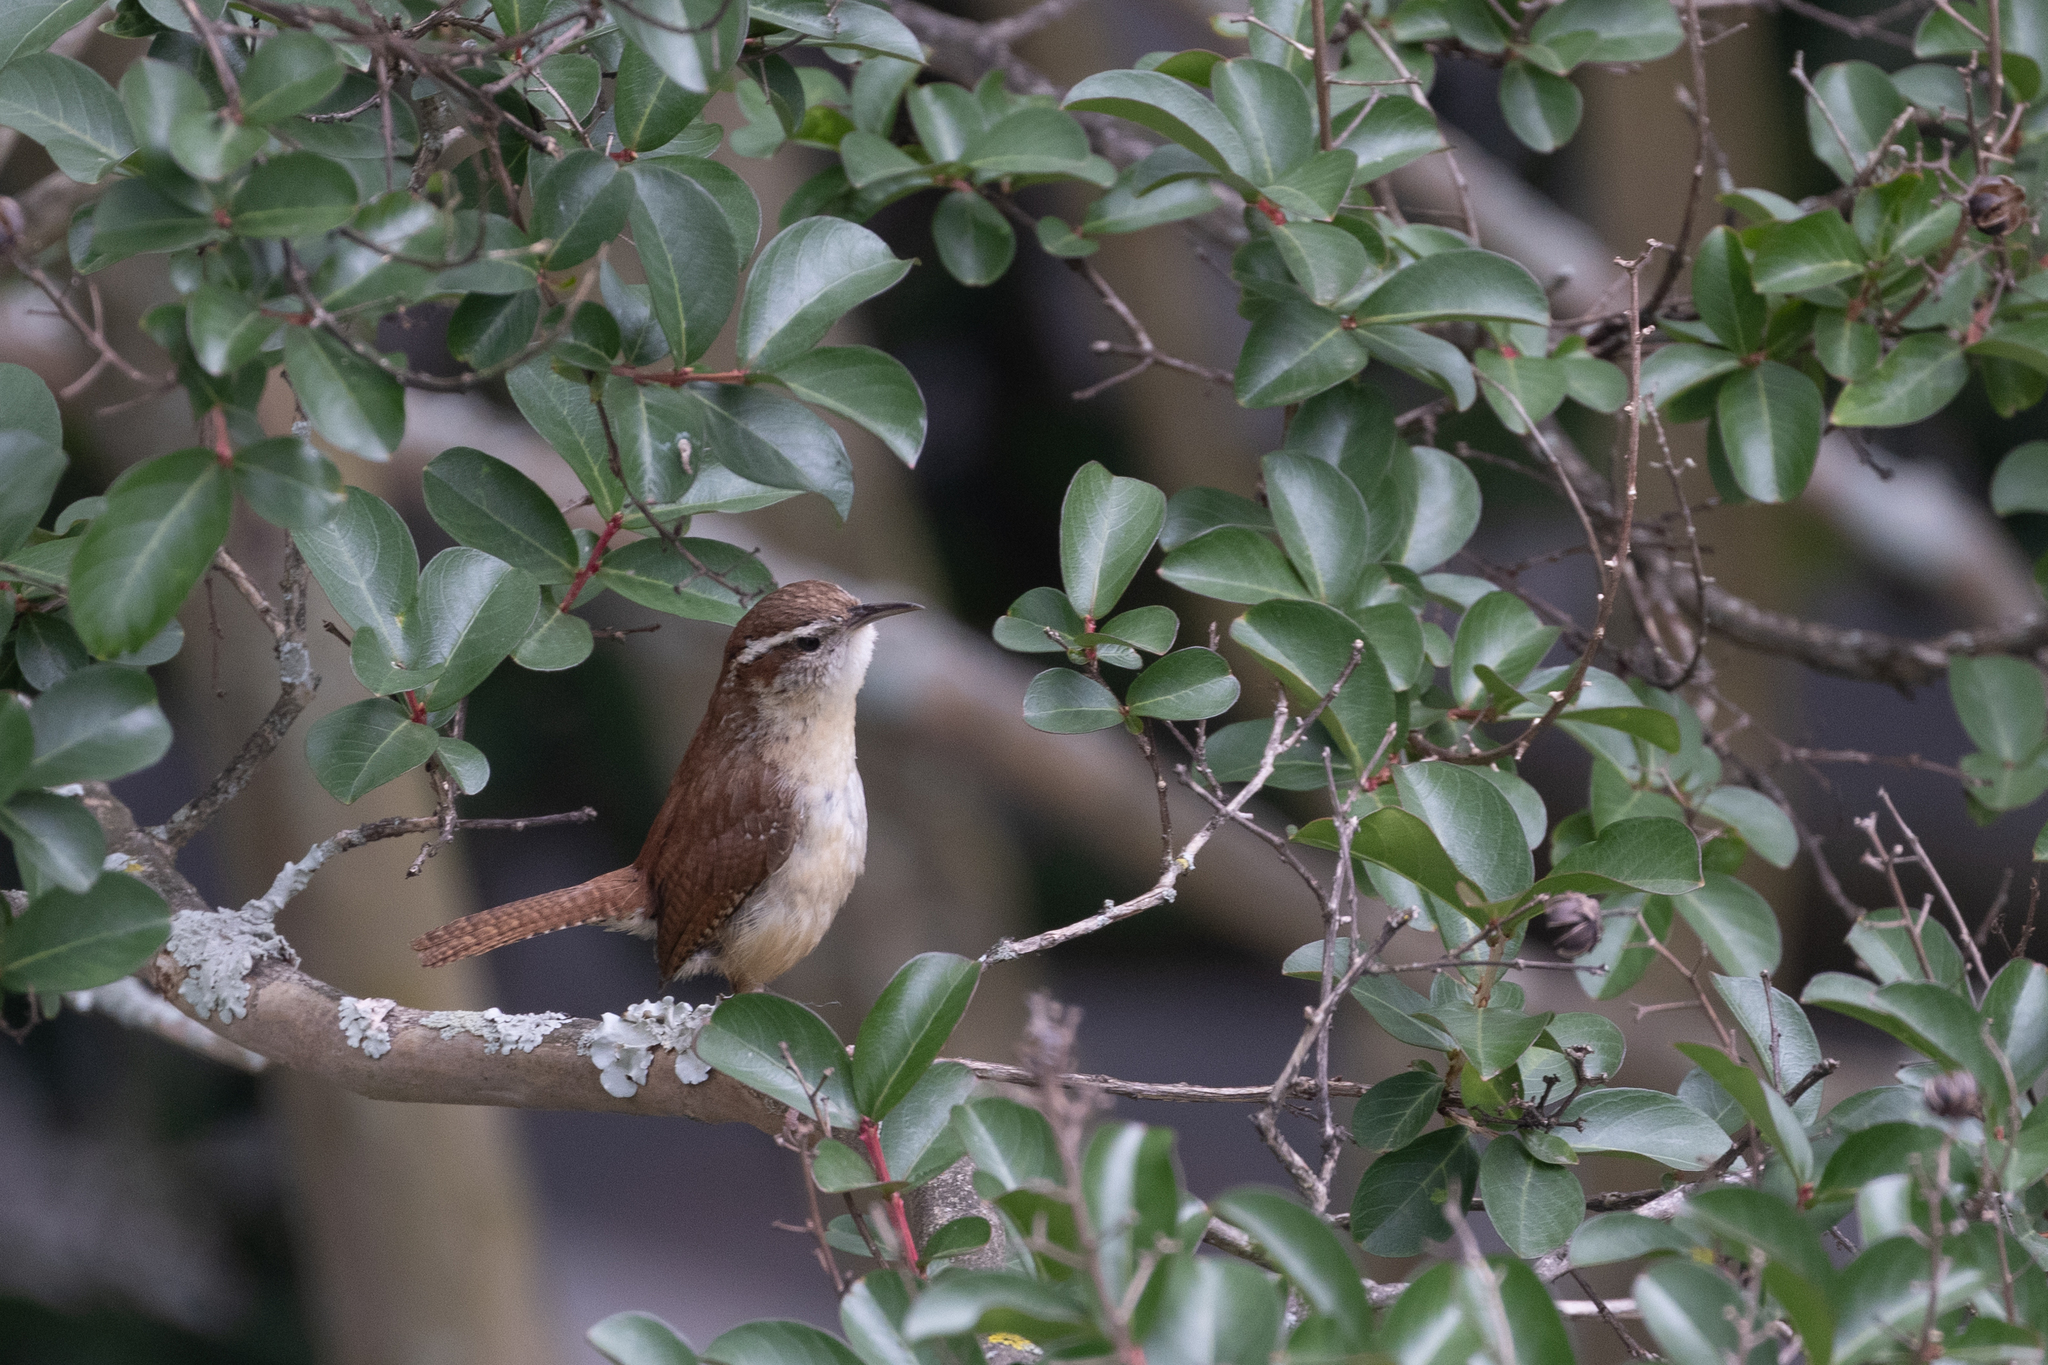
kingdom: Animalia
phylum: Chordata
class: Aves
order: Passeriformes
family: Troglodytidae
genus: Thryothorus
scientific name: Thryothorus ludovicianus
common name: Carolina wren
